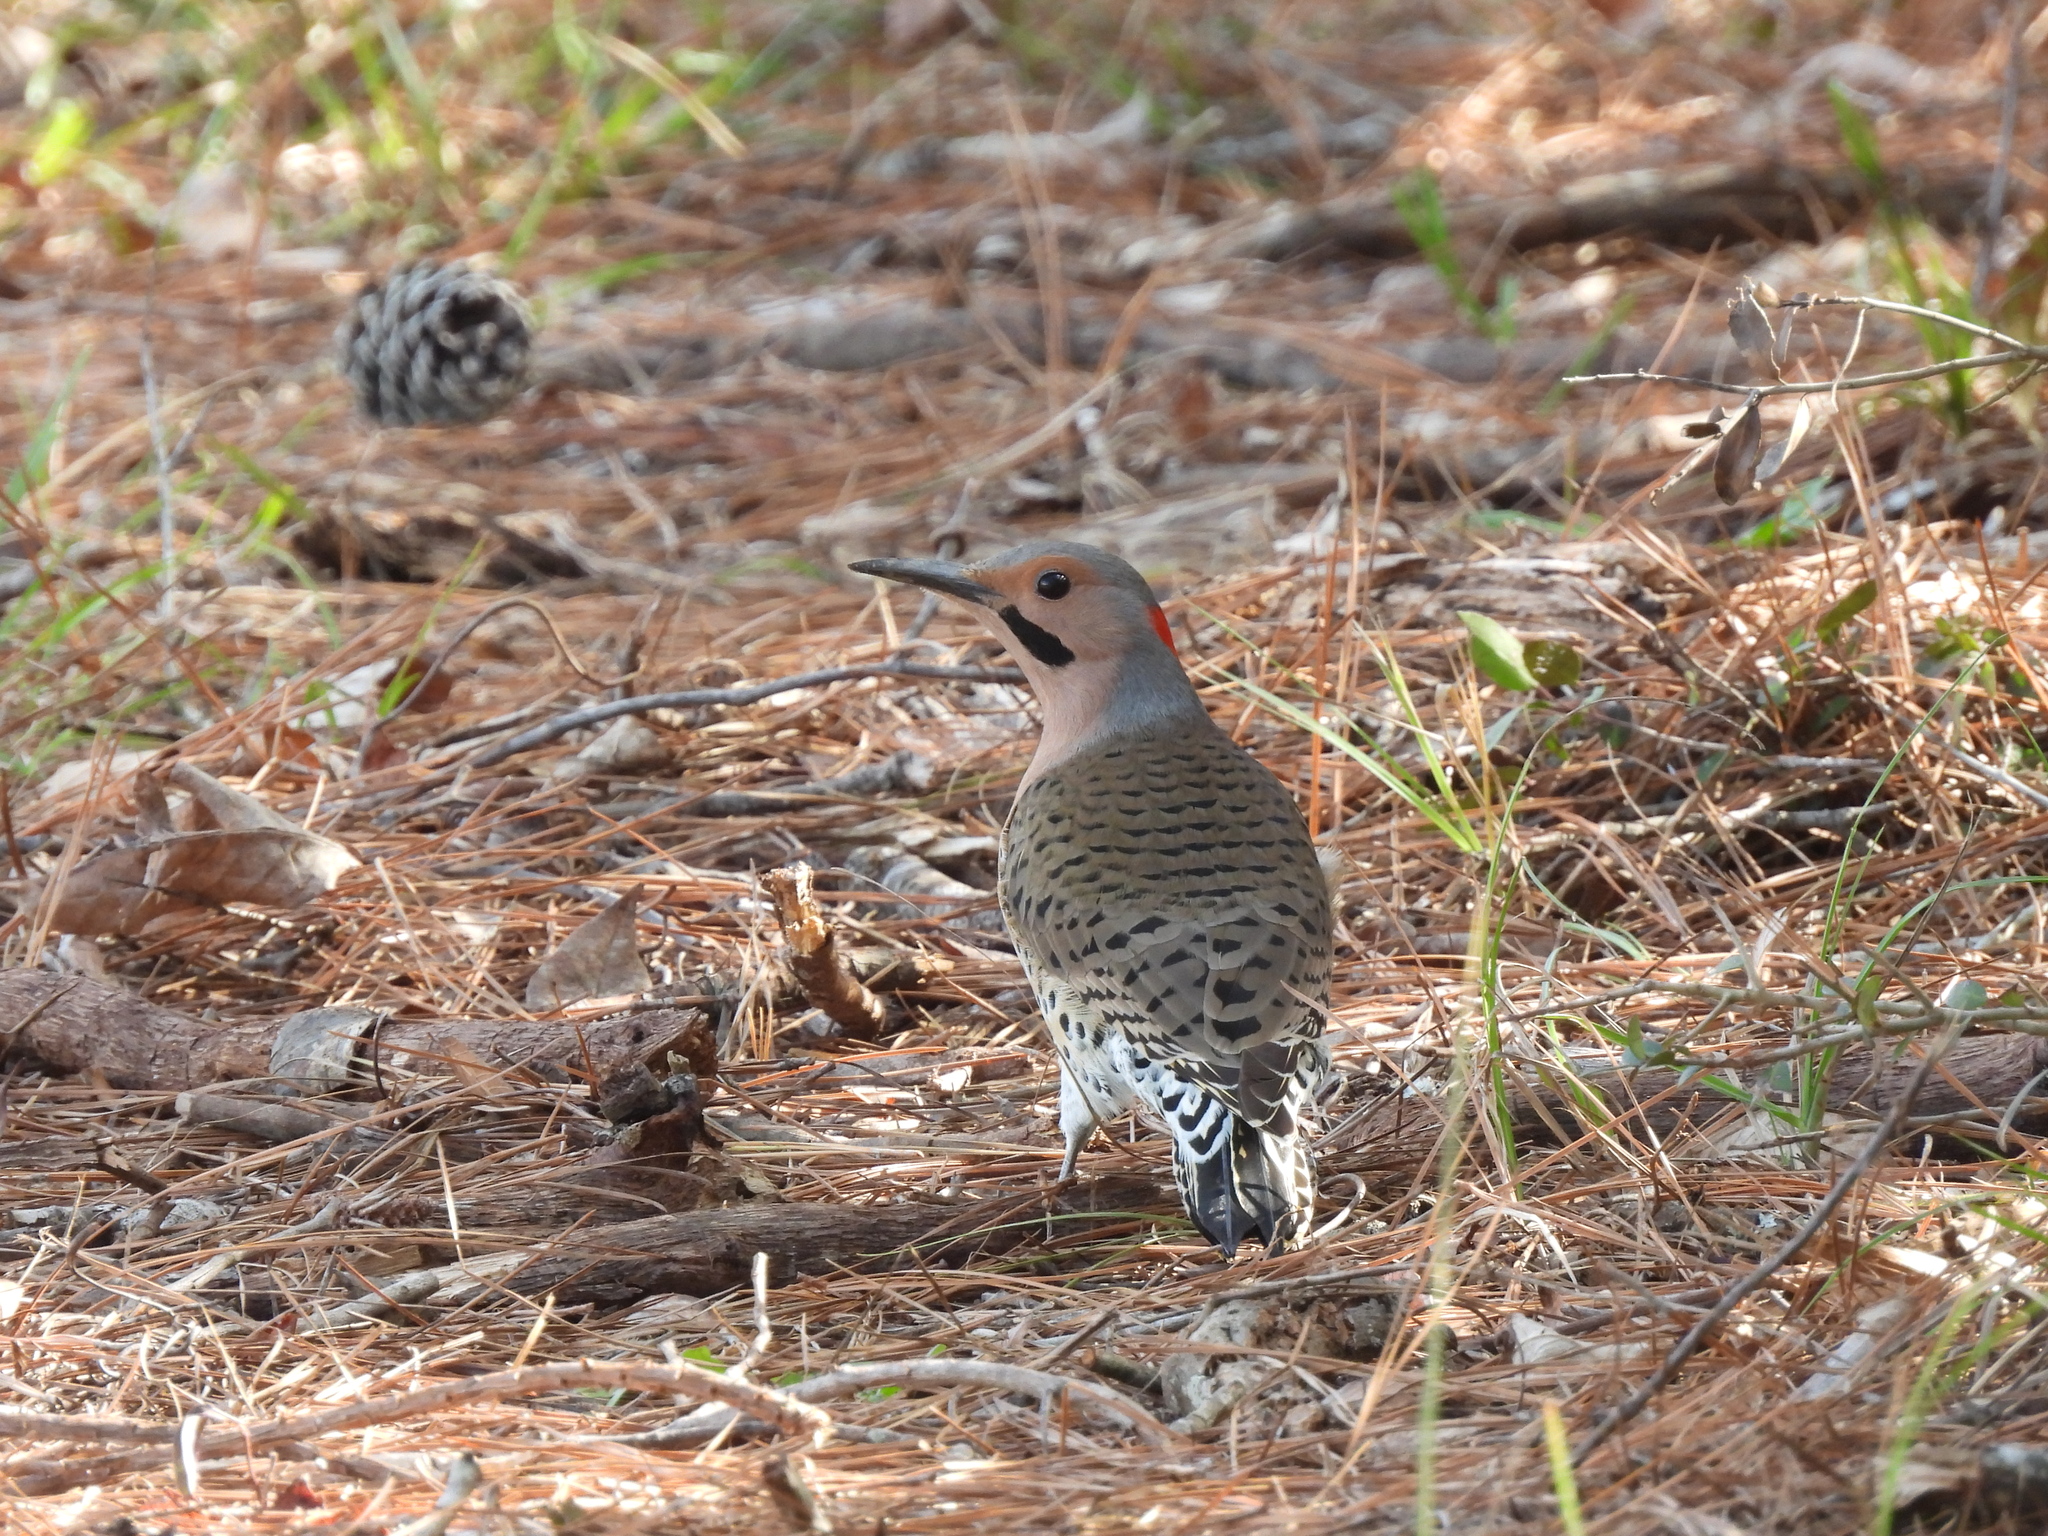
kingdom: Animalia
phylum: Chordata
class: Aves
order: Piciformes
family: Picidae
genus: Colaptes
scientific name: Colaptes auratus
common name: Northern flicker
